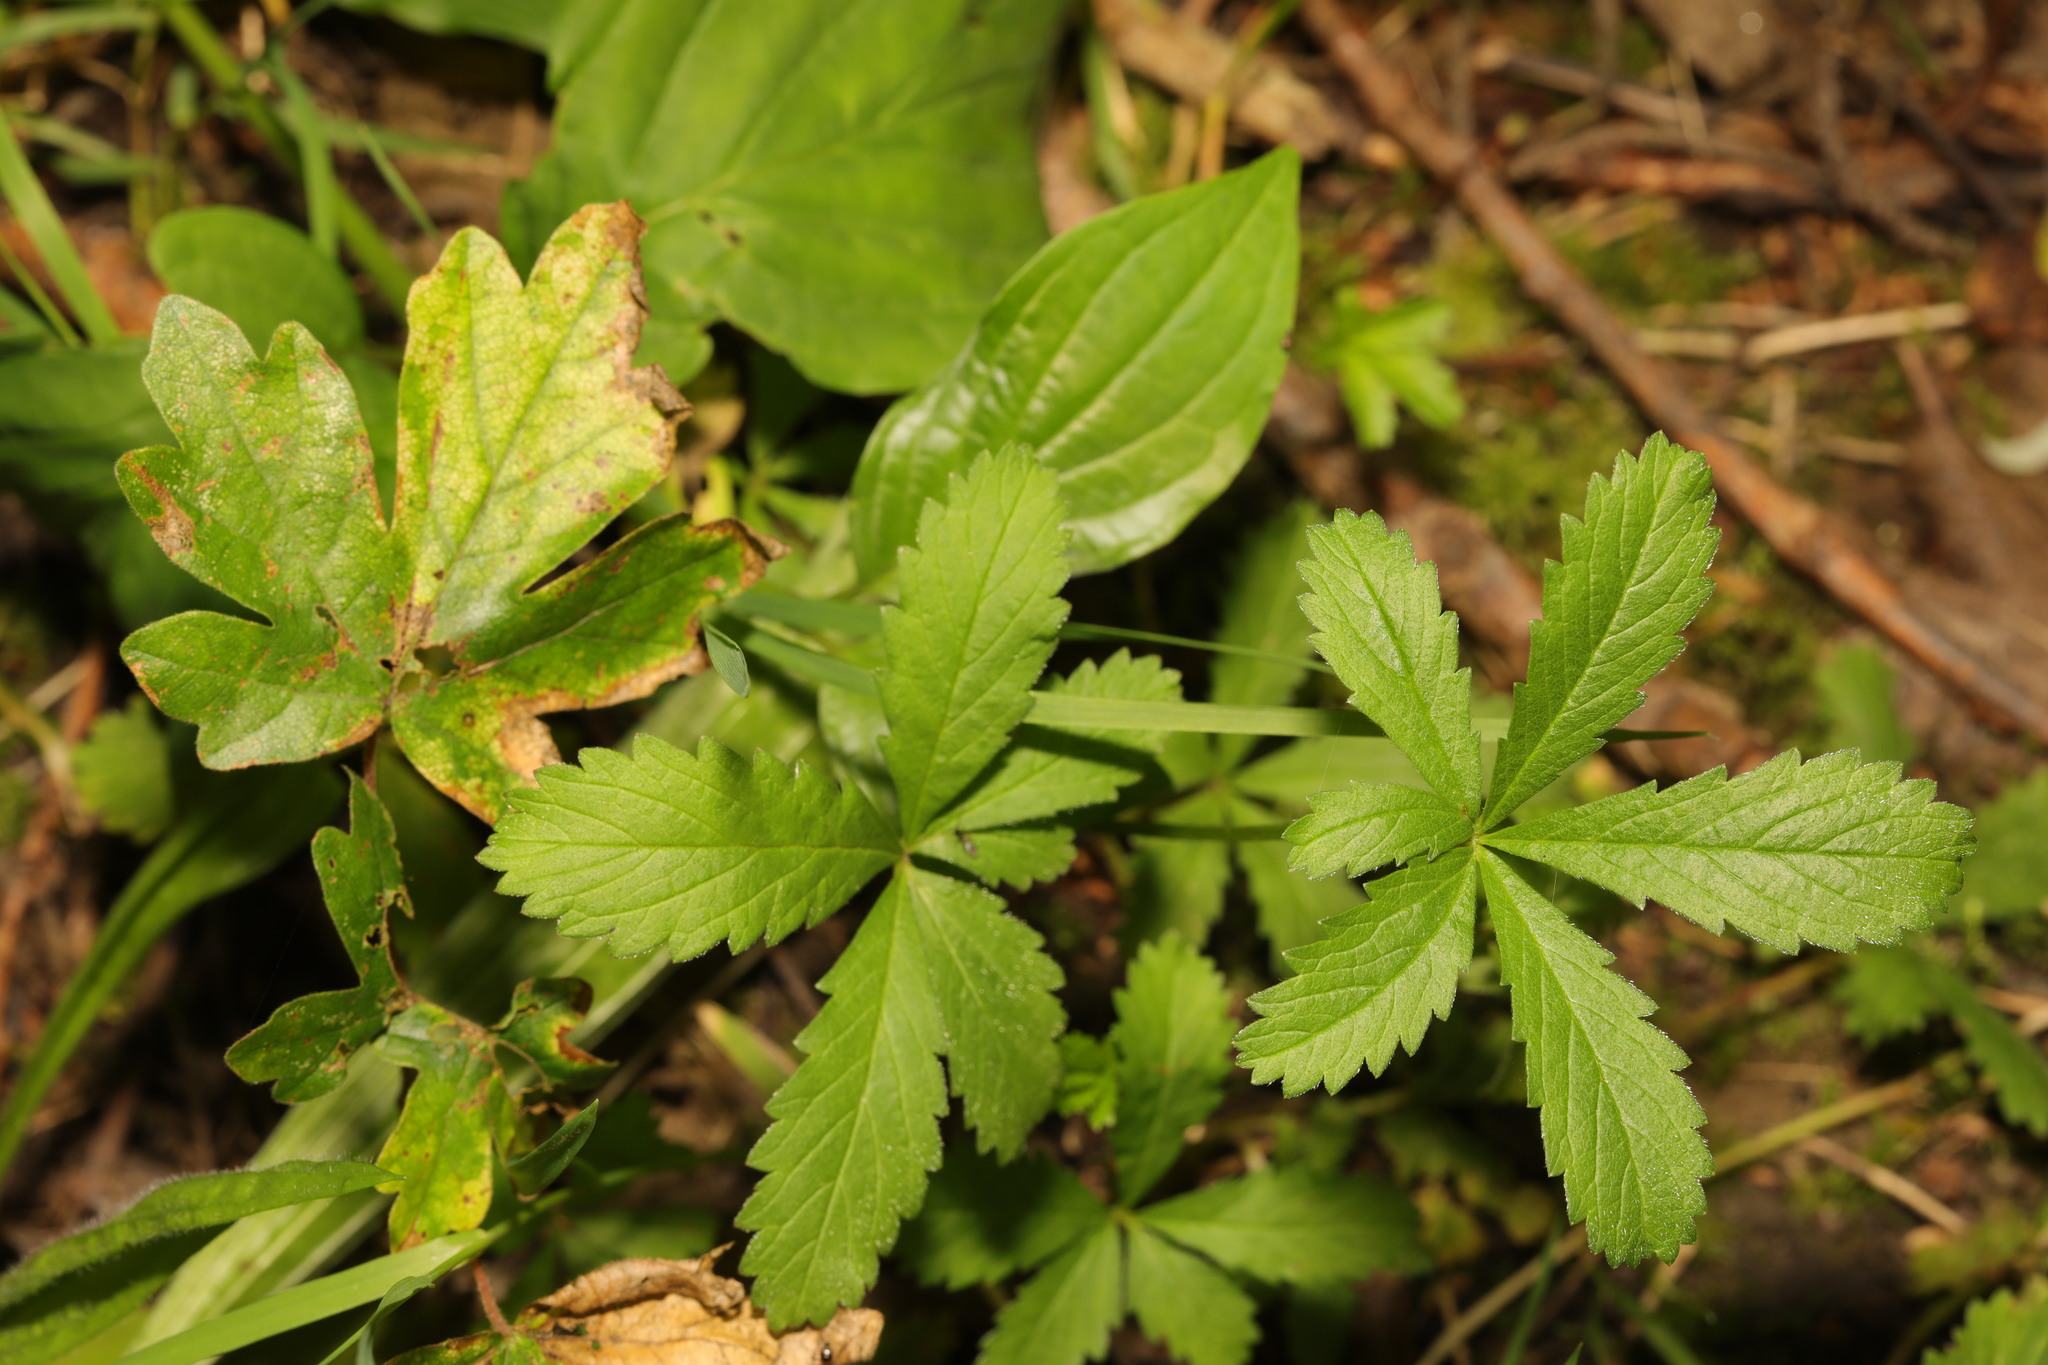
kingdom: Plantae
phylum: Tracheophyta
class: Magnoliopsida
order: Rosales
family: Rosaceae
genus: Potentilla
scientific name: Potentilla reptans
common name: Creeping cinquefoil
